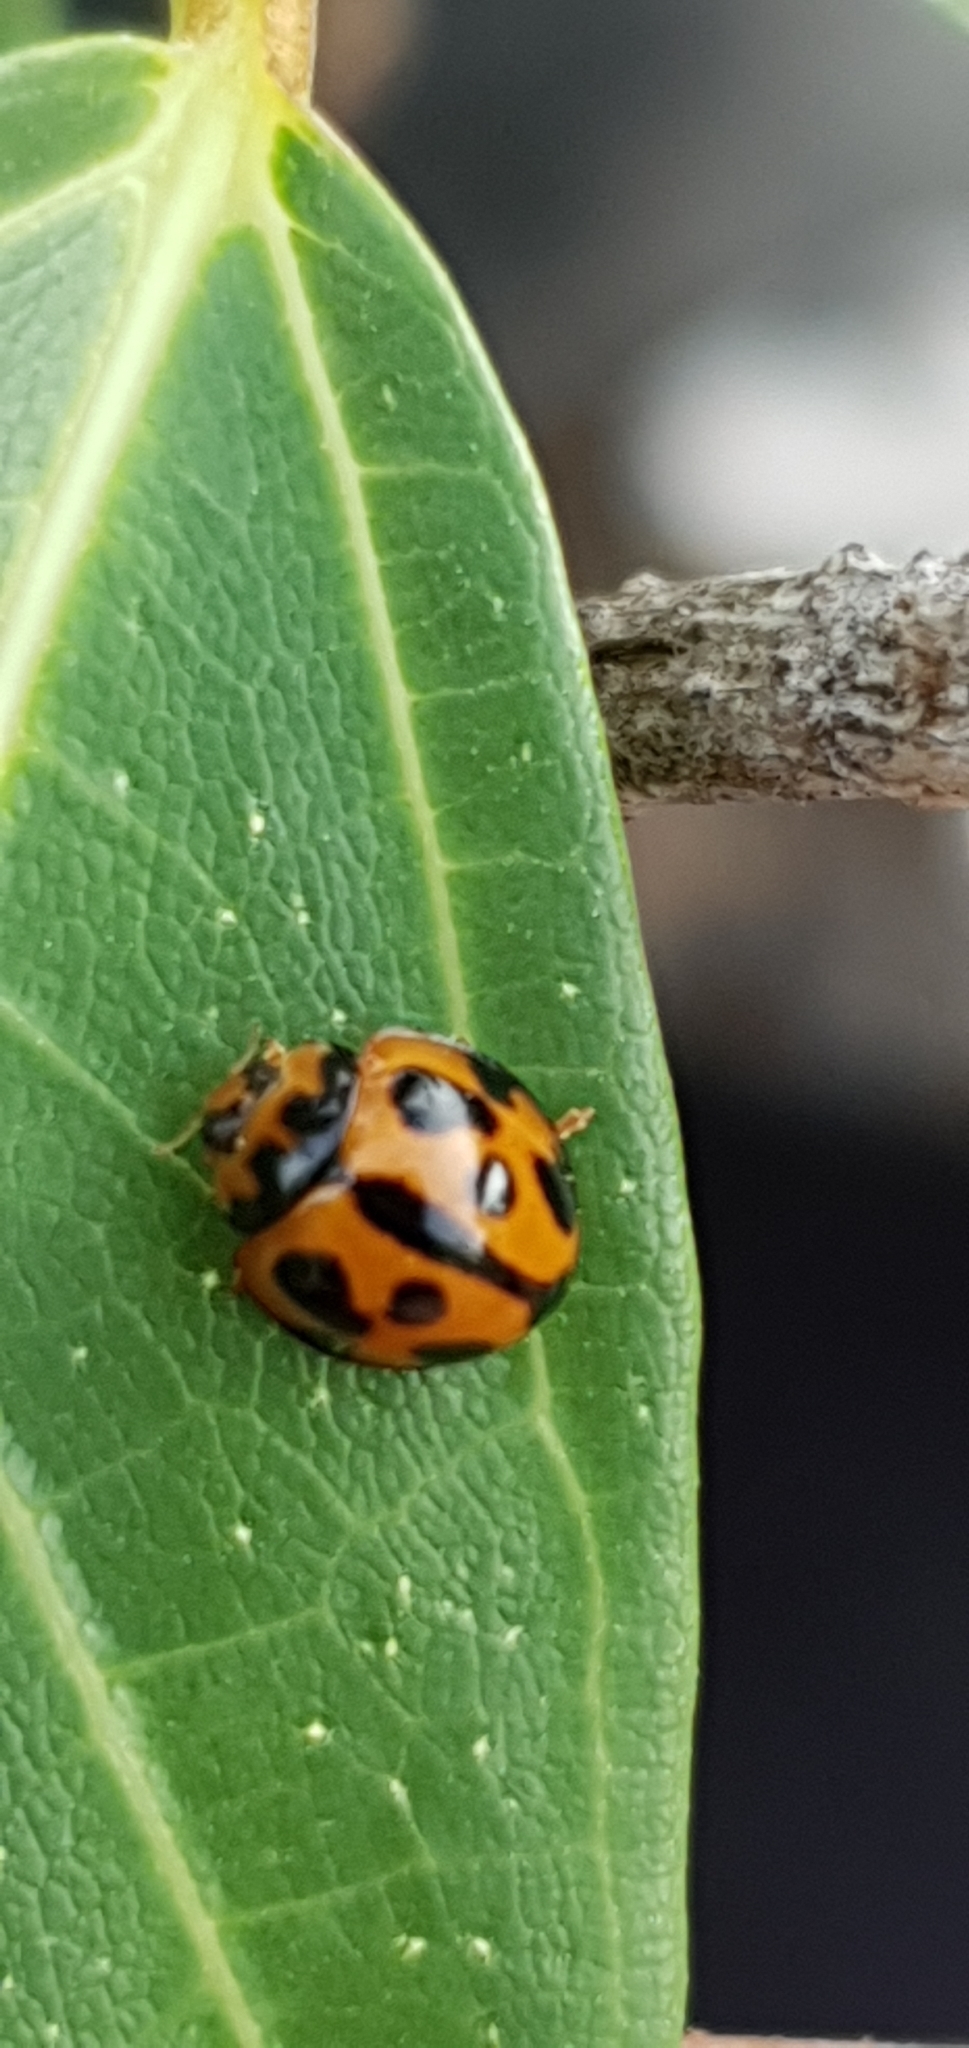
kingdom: Animalia
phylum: Arthropoda
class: Insecta
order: Coleoptera
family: Coccinellidae
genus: Coelophora
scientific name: Coelophora inaequalis
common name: Common australian lady beetle
